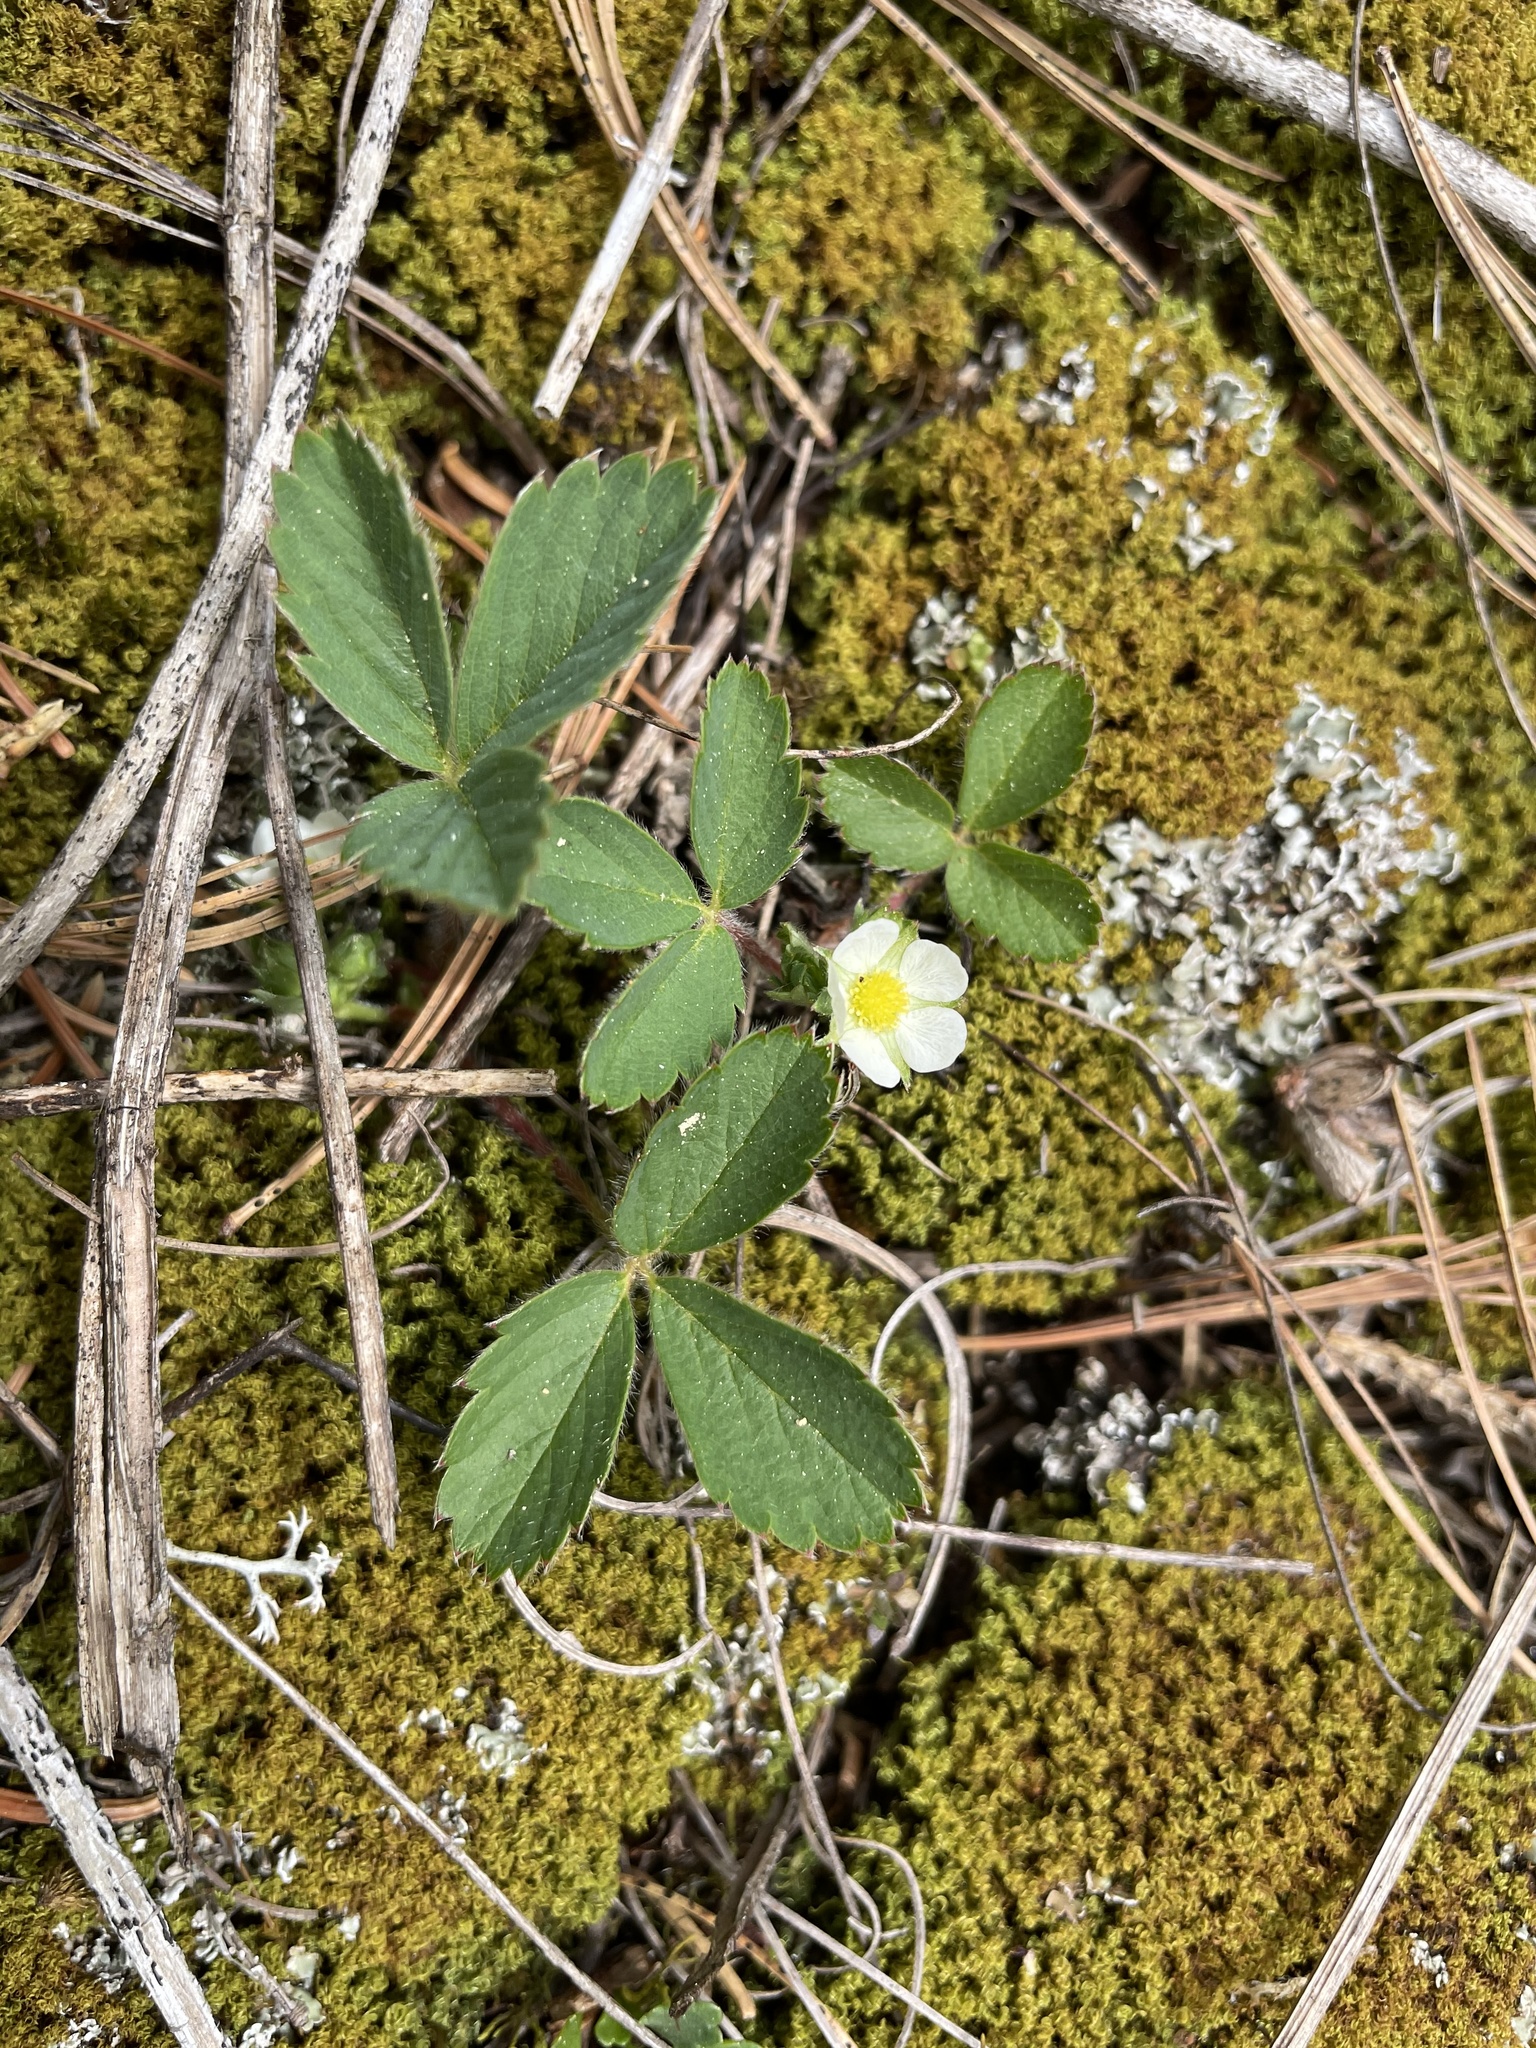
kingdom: Plantae
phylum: Tracheophyta
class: Magnoliopsida
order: Rosales
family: Rosaceae
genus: Fragaria
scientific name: Fragaria virginiana
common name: Thickleaved wild strawberry
